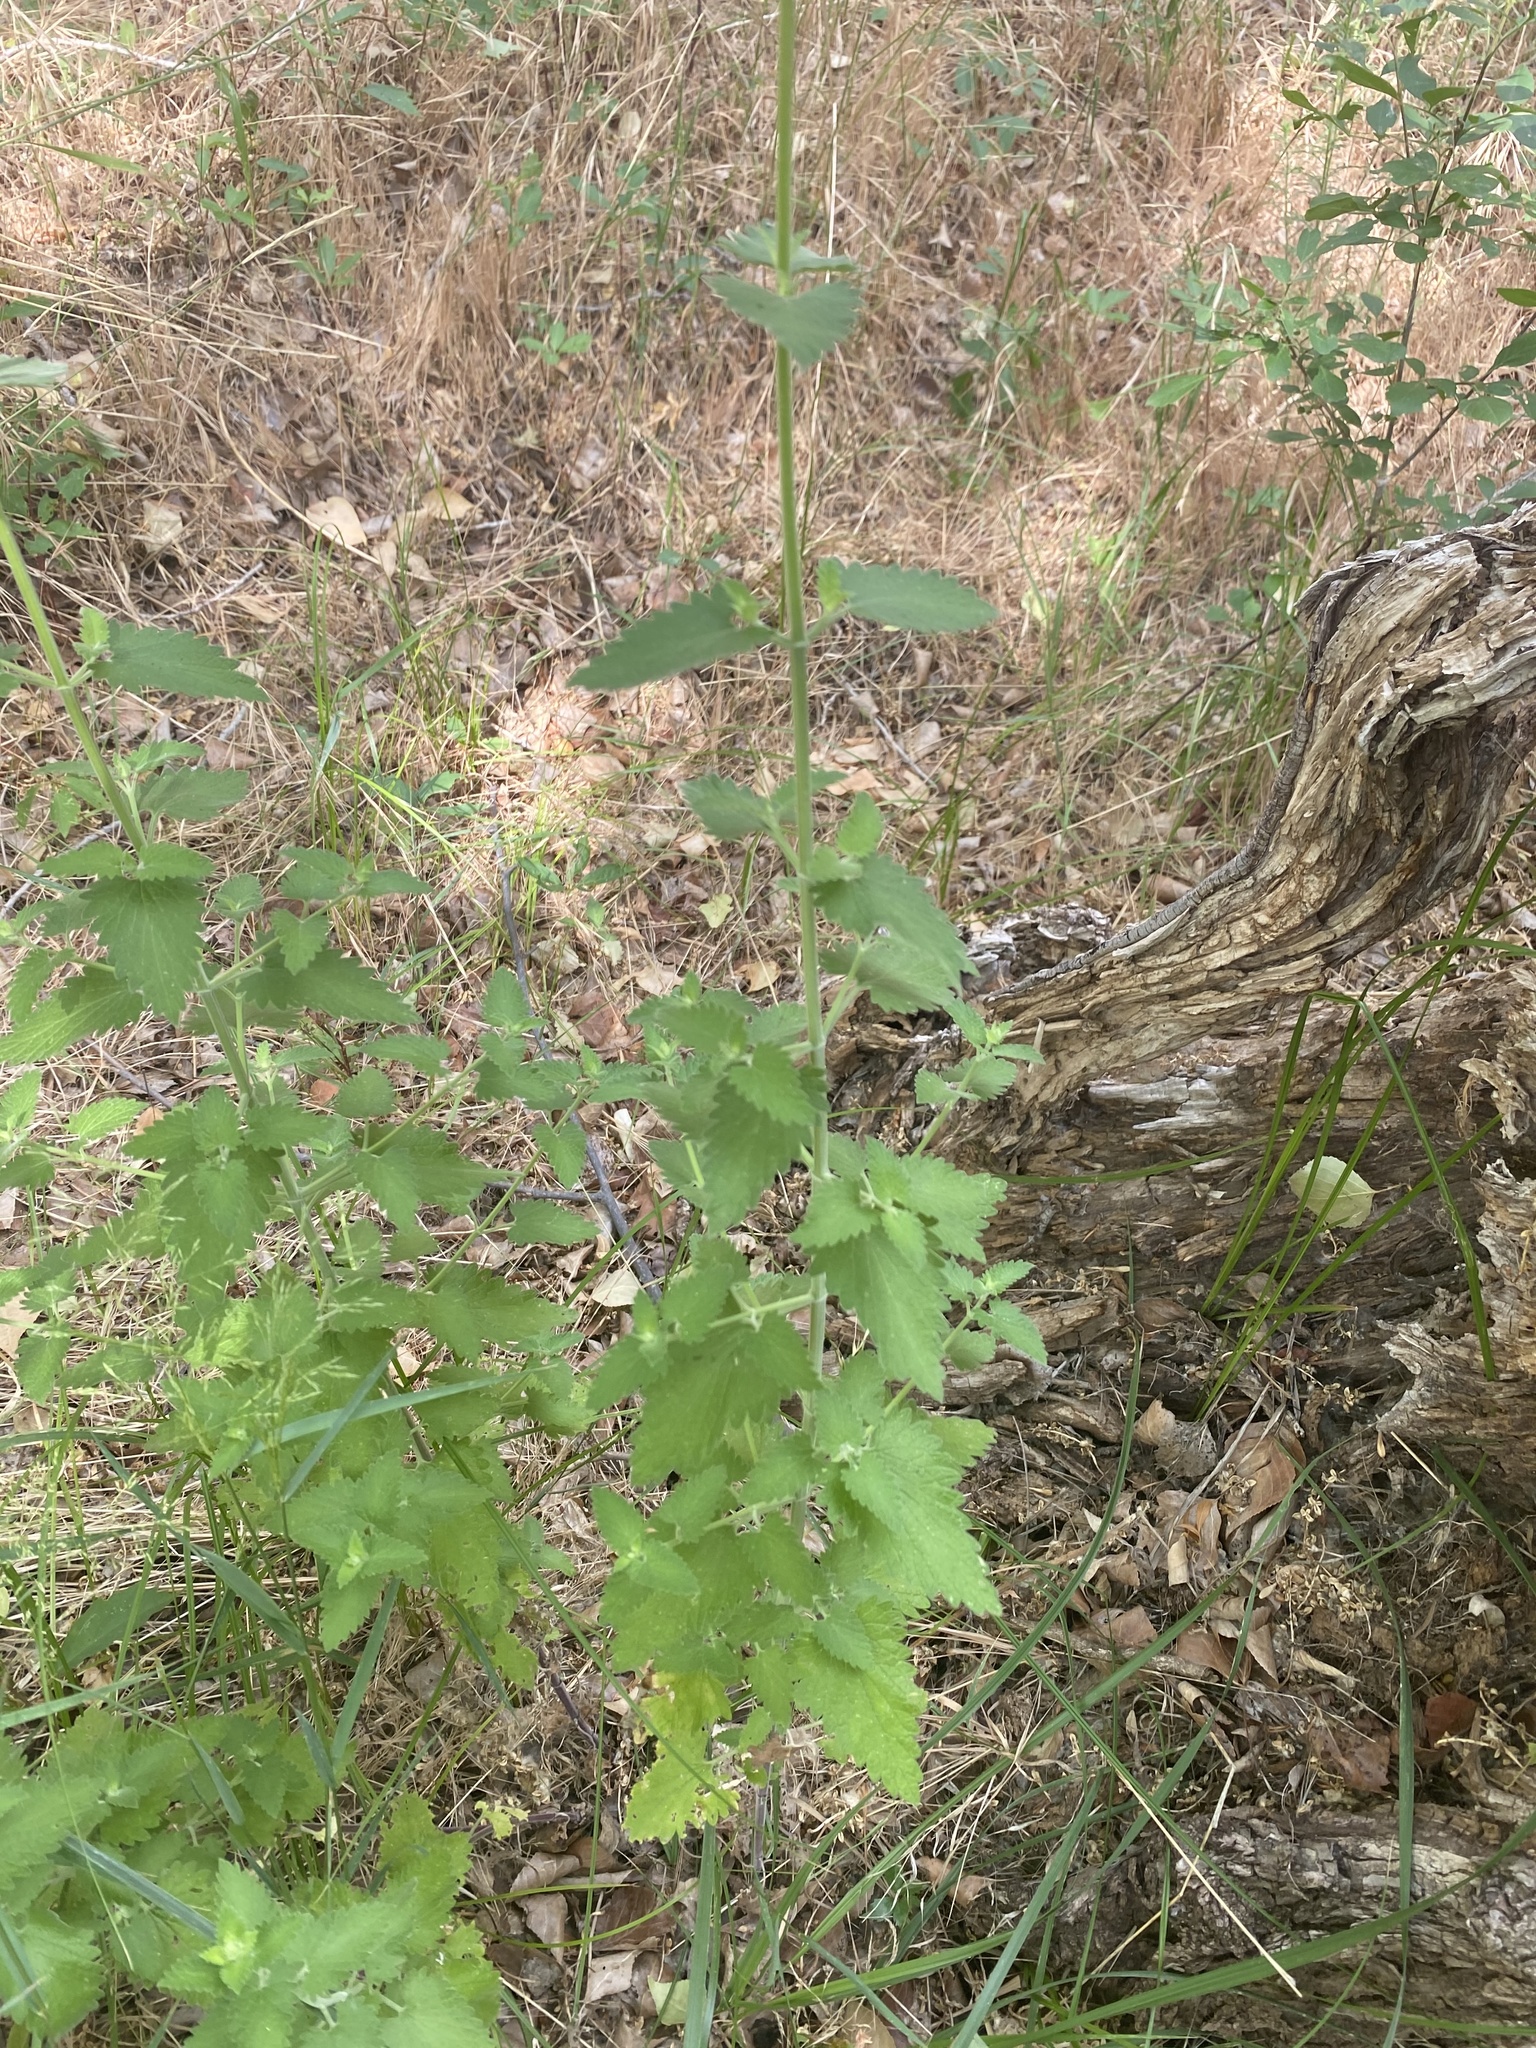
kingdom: Plantae
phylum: Tracheophyta
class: Magnoliopsida
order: Lamiales
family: Lamiaceae
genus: Nepeta
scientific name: Nepeta cataria
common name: Catnip
